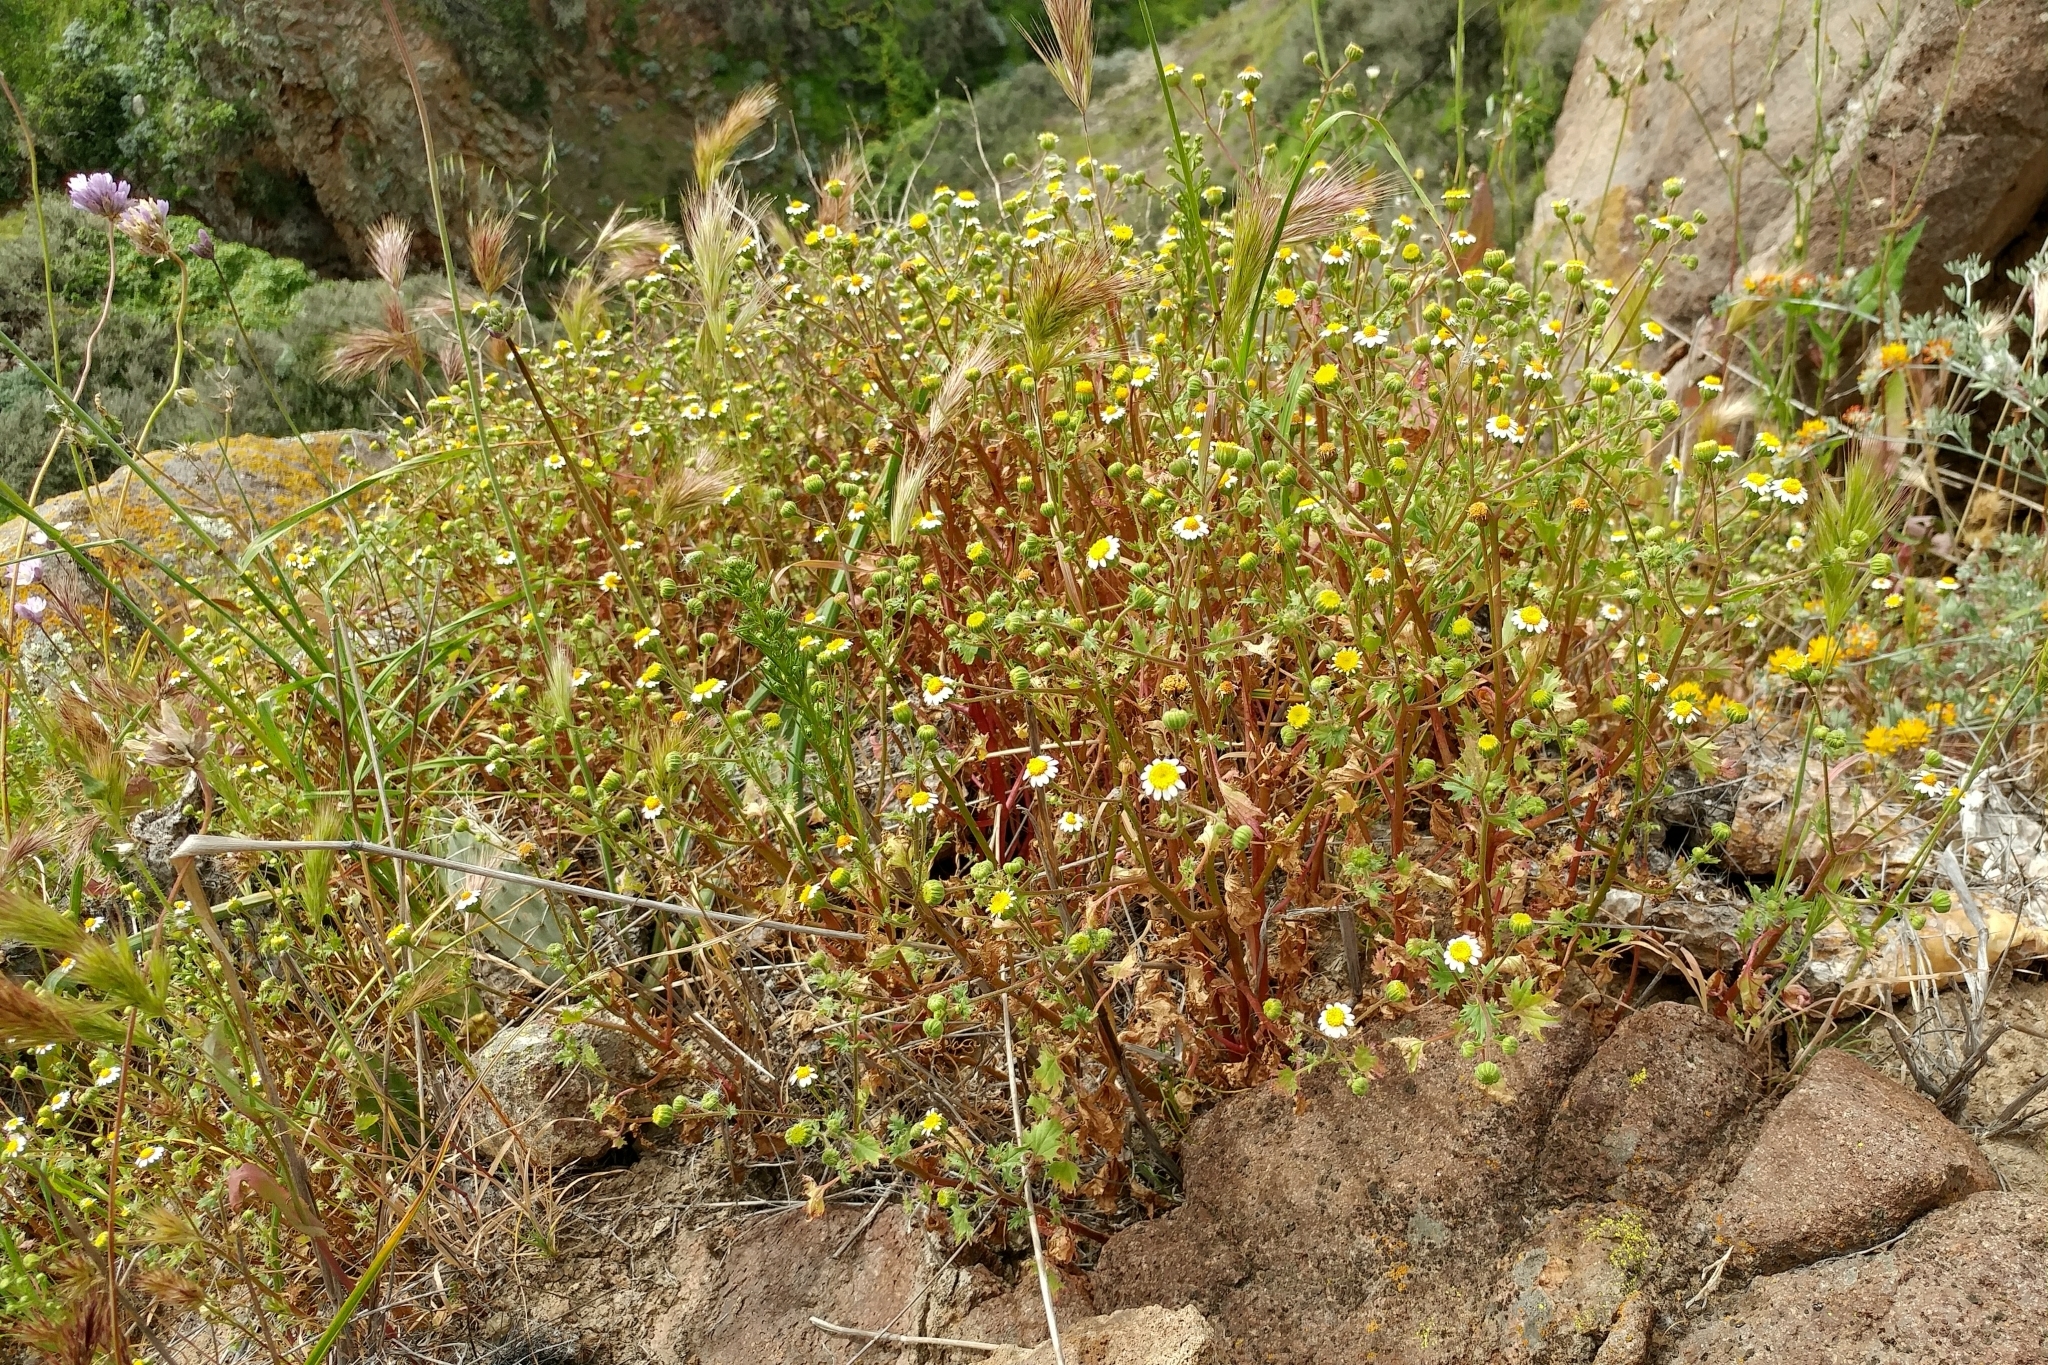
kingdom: Plantae
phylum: Tracheophyta
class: Magnoliopsida
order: Asterales
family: Asteraceae
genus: Laphamia
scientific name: Laphamia emoryi
